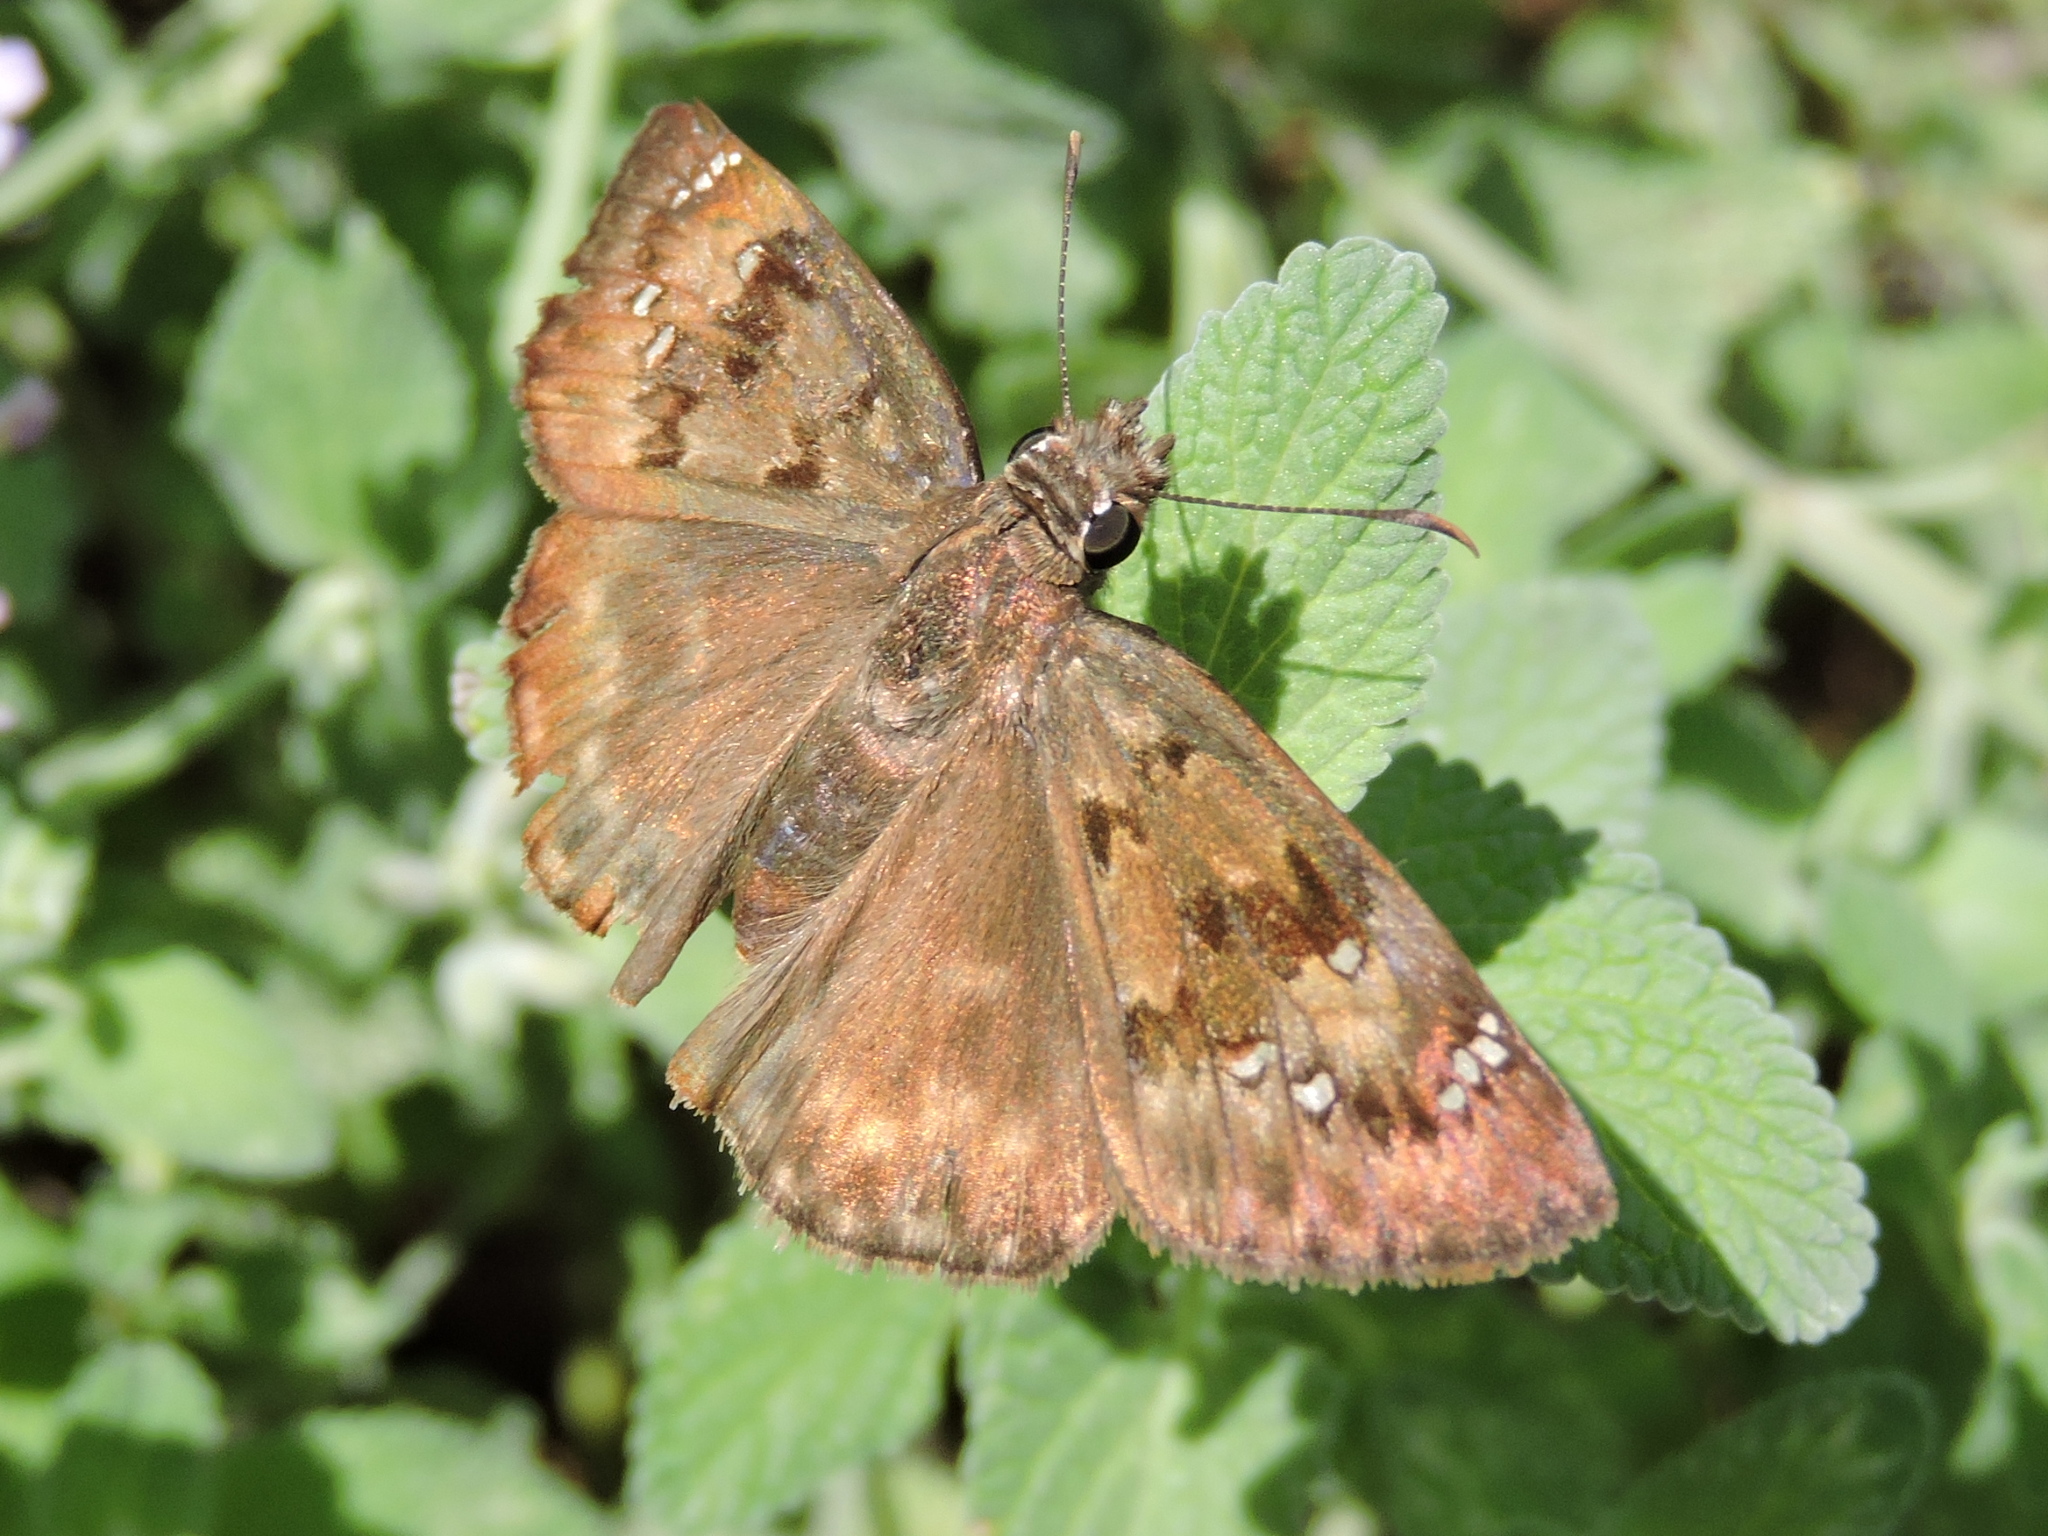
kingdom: Animalia
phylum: Arthropoda
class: Insecta
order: Lepidoptera
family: Hesperiidae
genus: Erynnis
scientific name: Erynnis horatius
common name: Horace's duskywing
